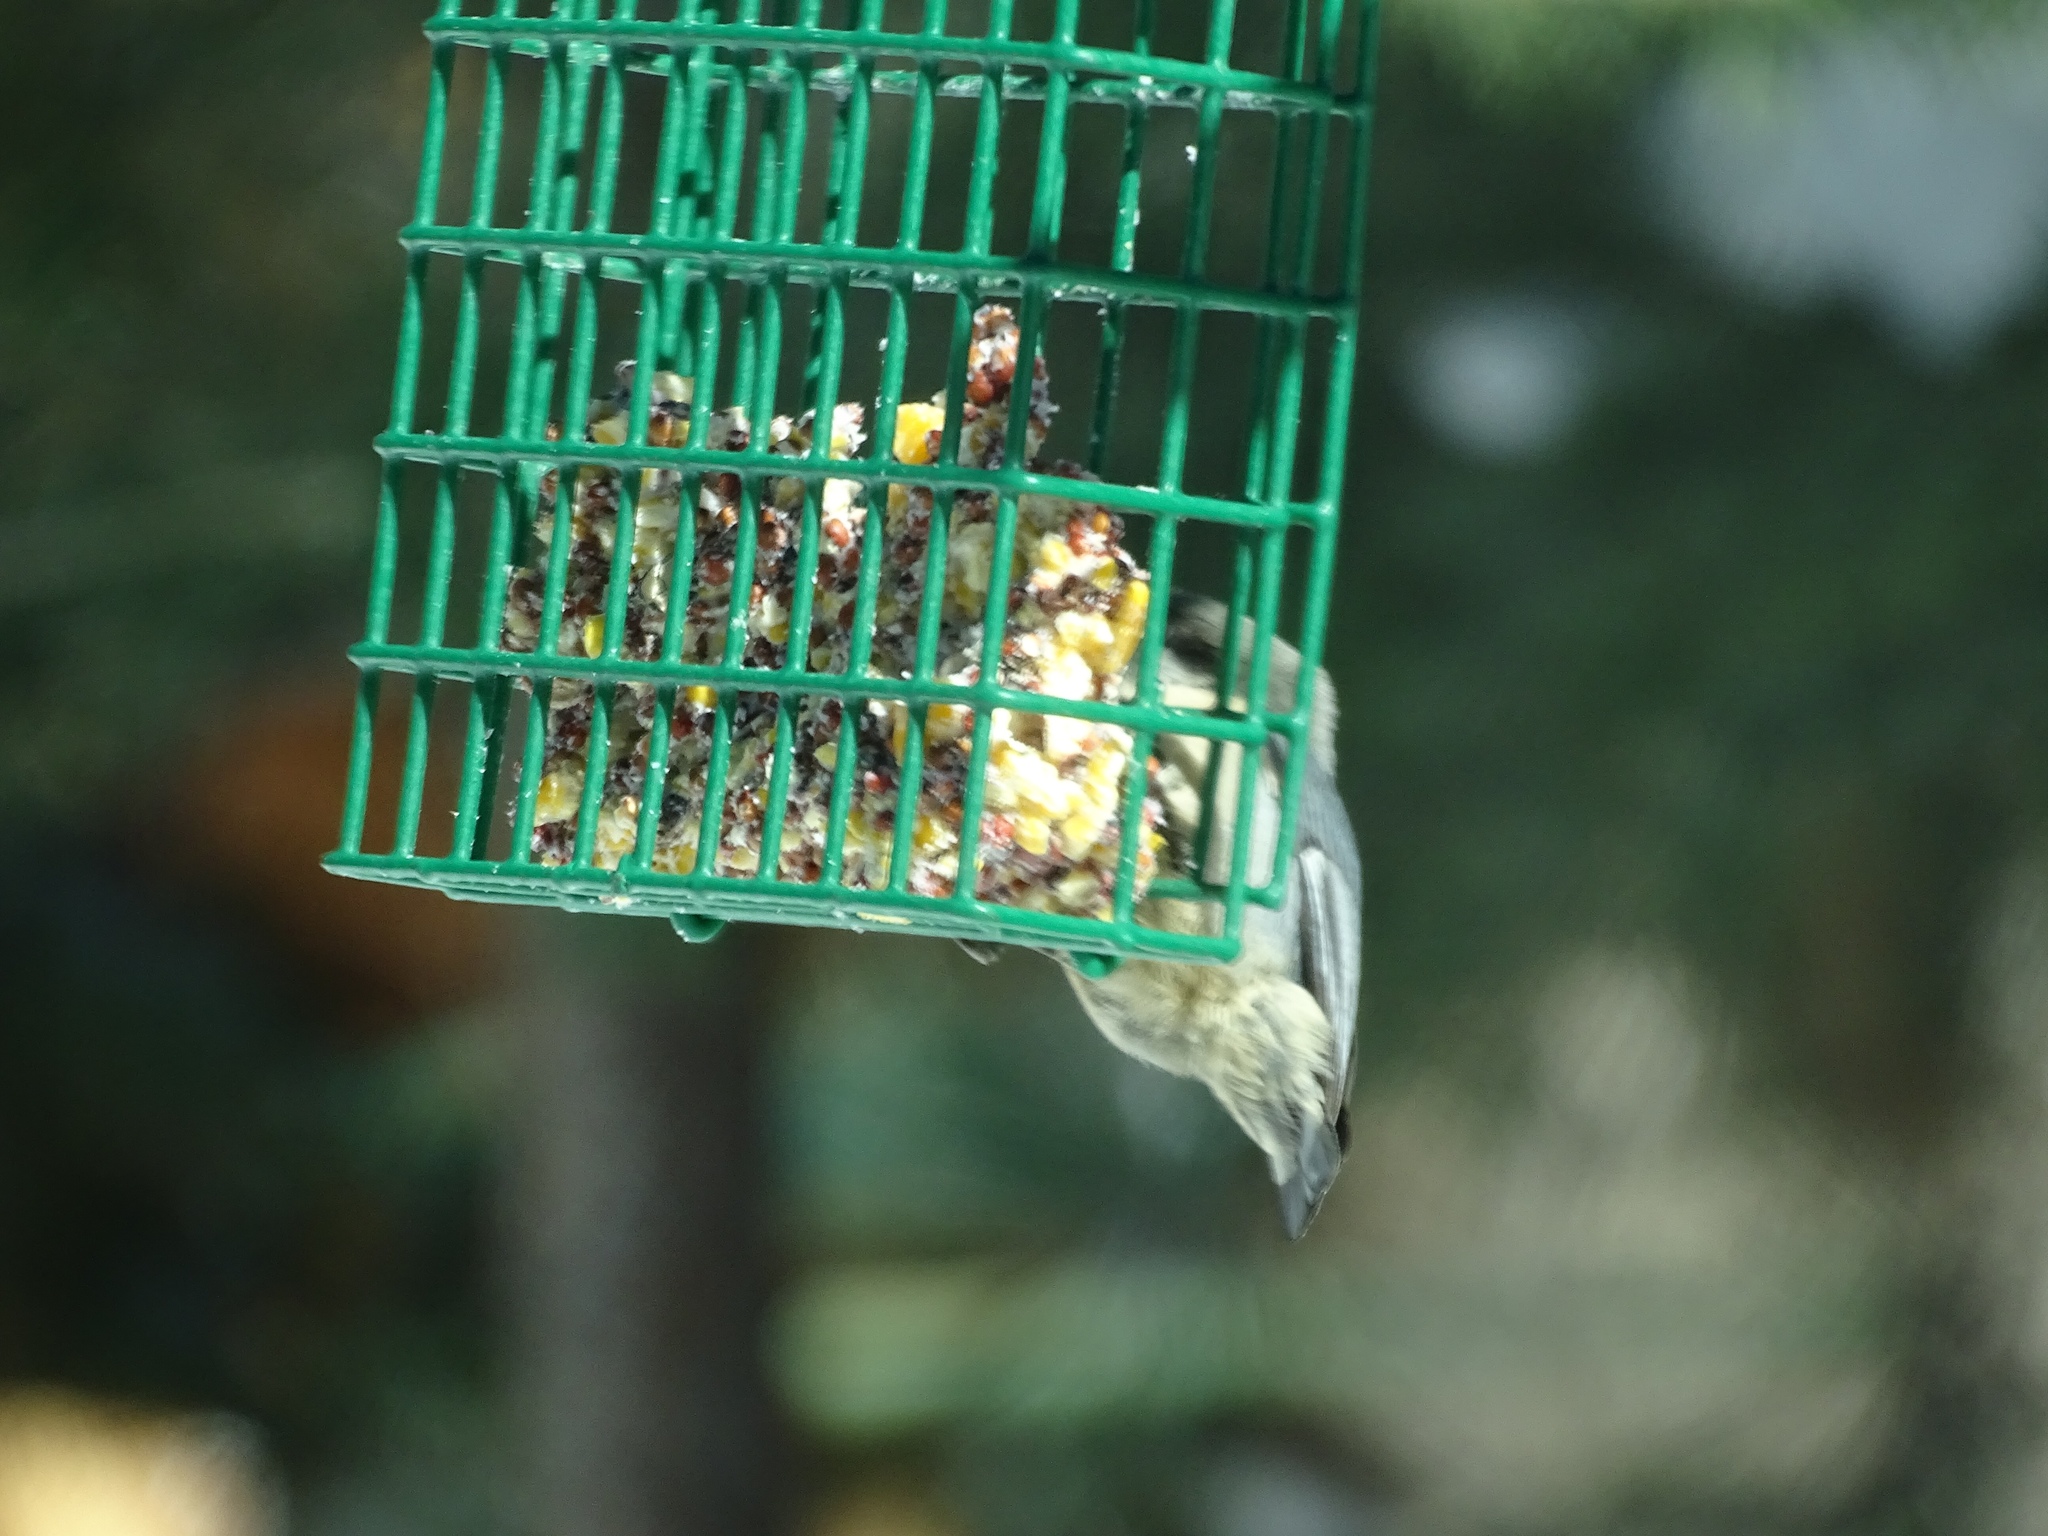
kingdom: Animalia
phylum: Chordata
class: Aves
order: Passeriformes
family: Sittidae
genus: Sitta
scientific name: Sitta pygmaea
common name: Pygmy nuthatch
